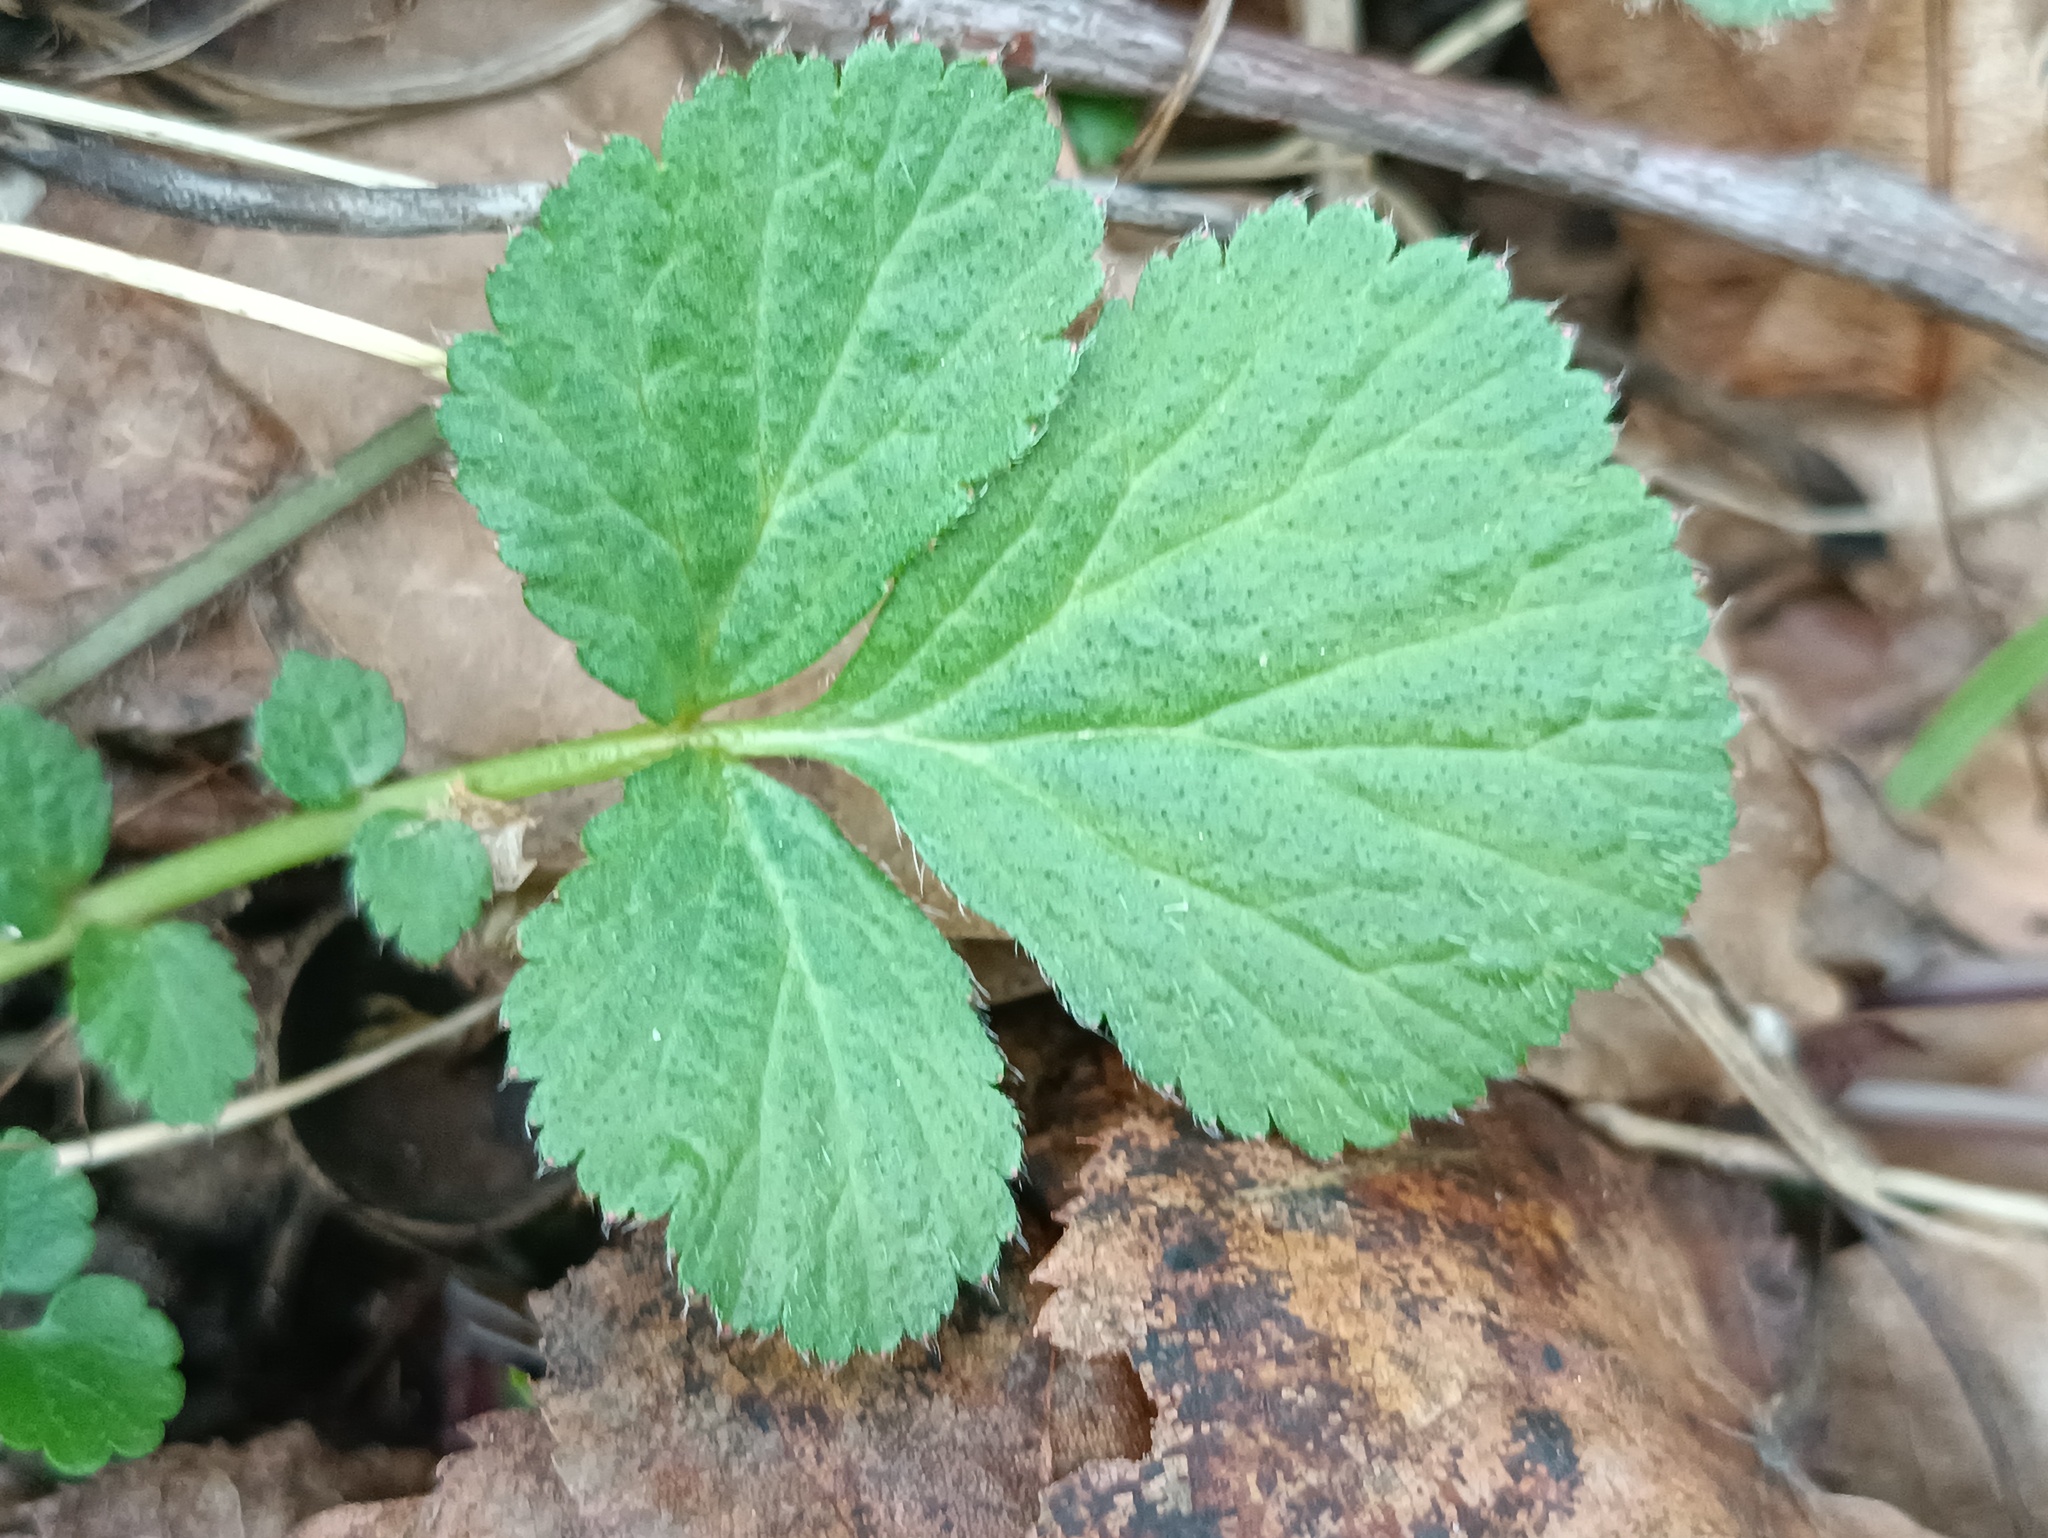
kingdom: Plantae
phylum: Tracheophyta
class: Magnoliopsida
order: Rosales
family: Rosaceae
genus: Geum
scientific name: Geum urbanum
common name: Wood avens
